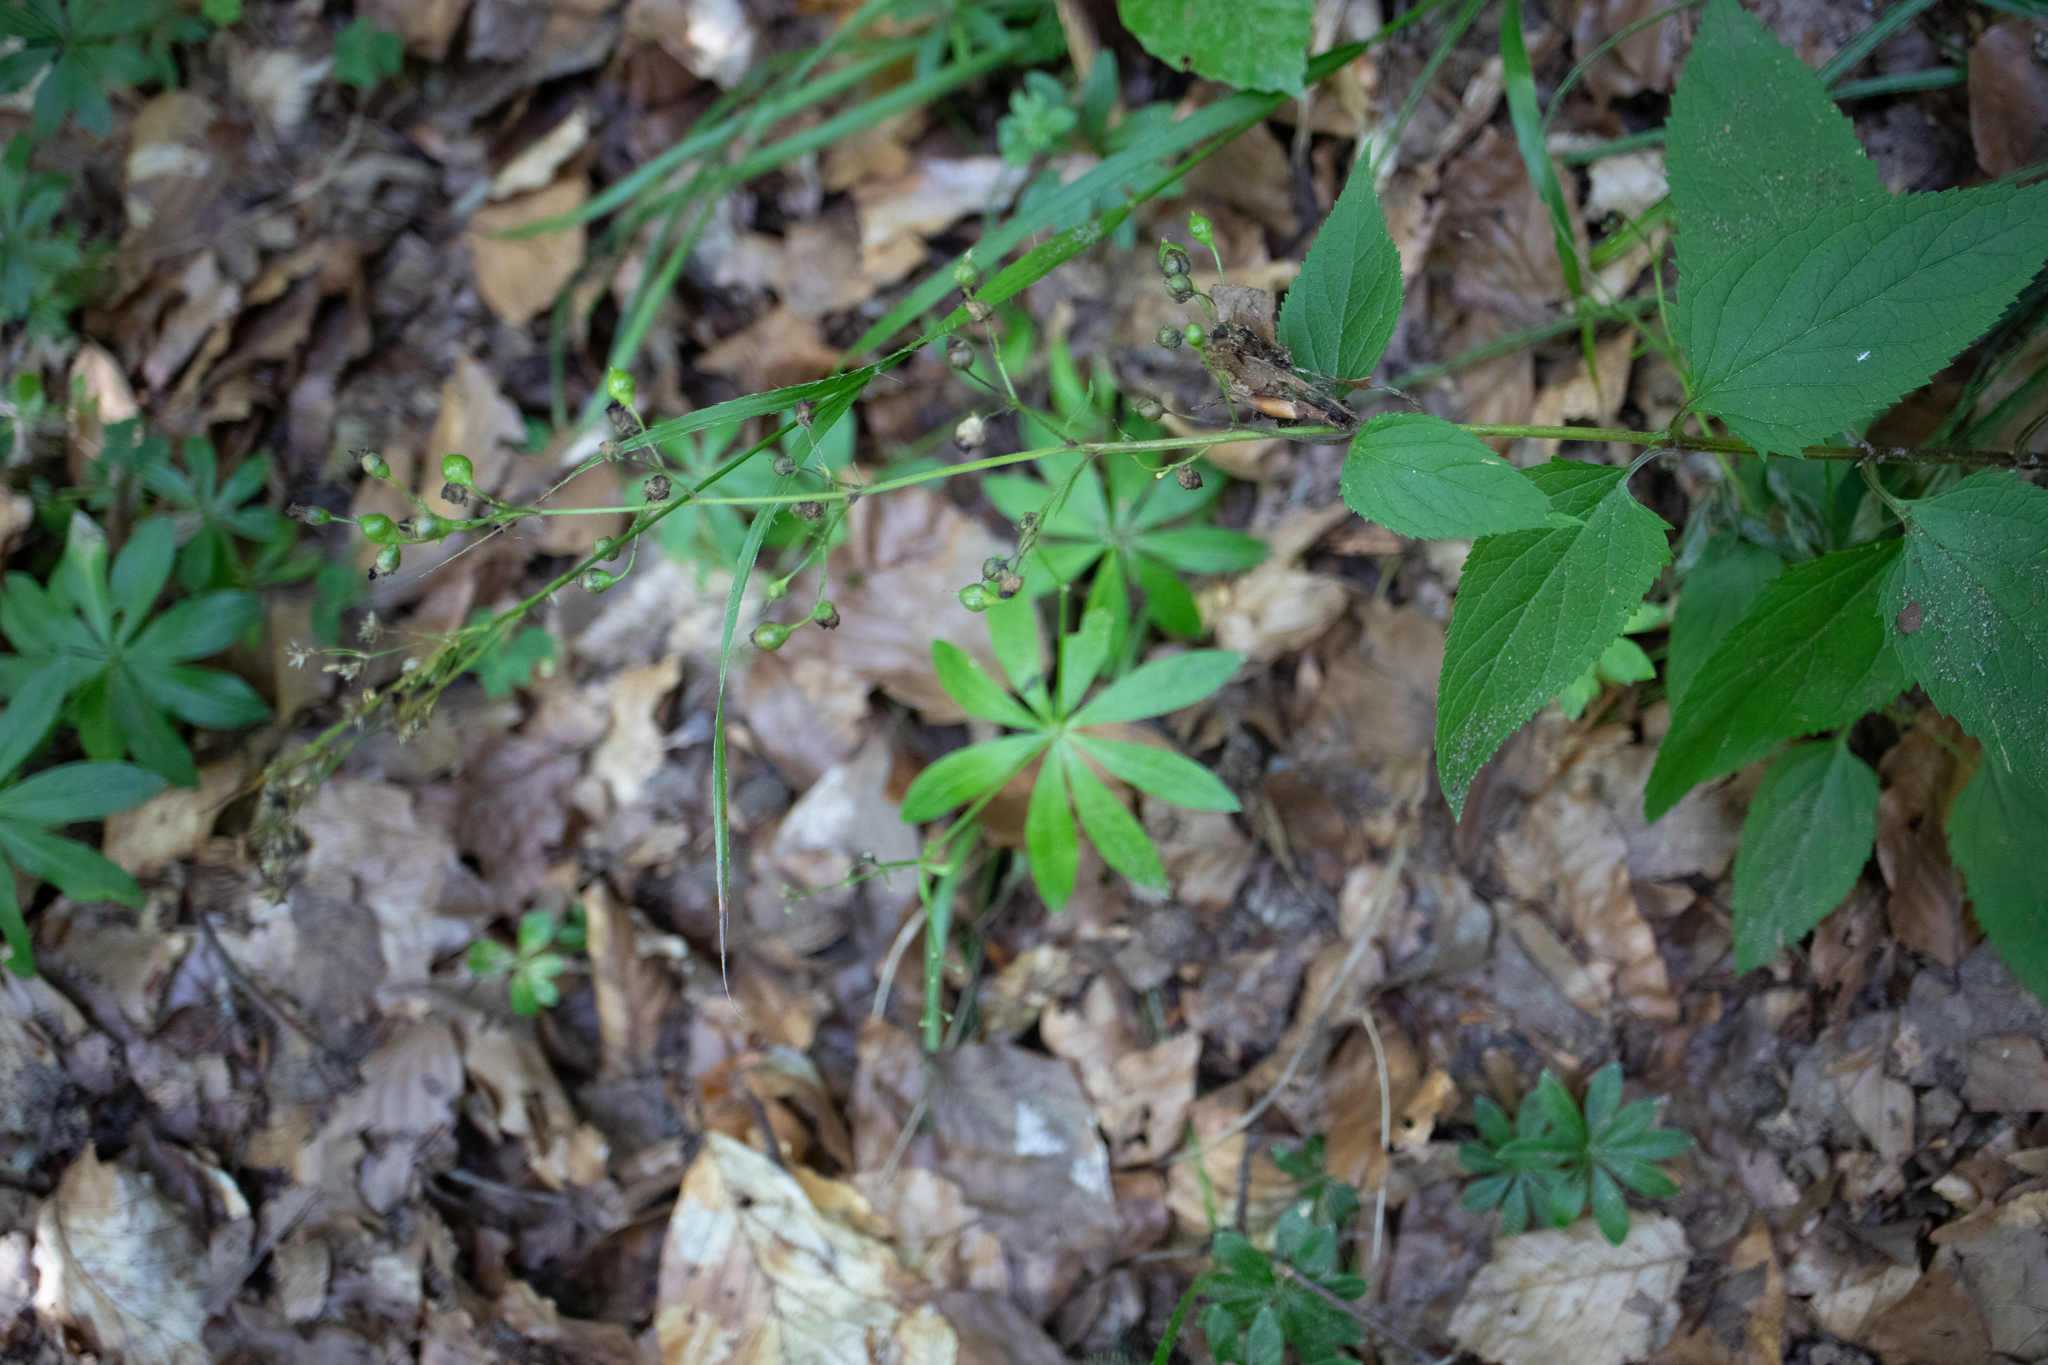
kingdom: Plantae
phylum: Tracheophyta
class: Magnoliopsida
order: Lamiales
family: Scrophulariaceae
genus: Scrophularia
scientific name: Scrophularia nodosa
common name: Common figwort
